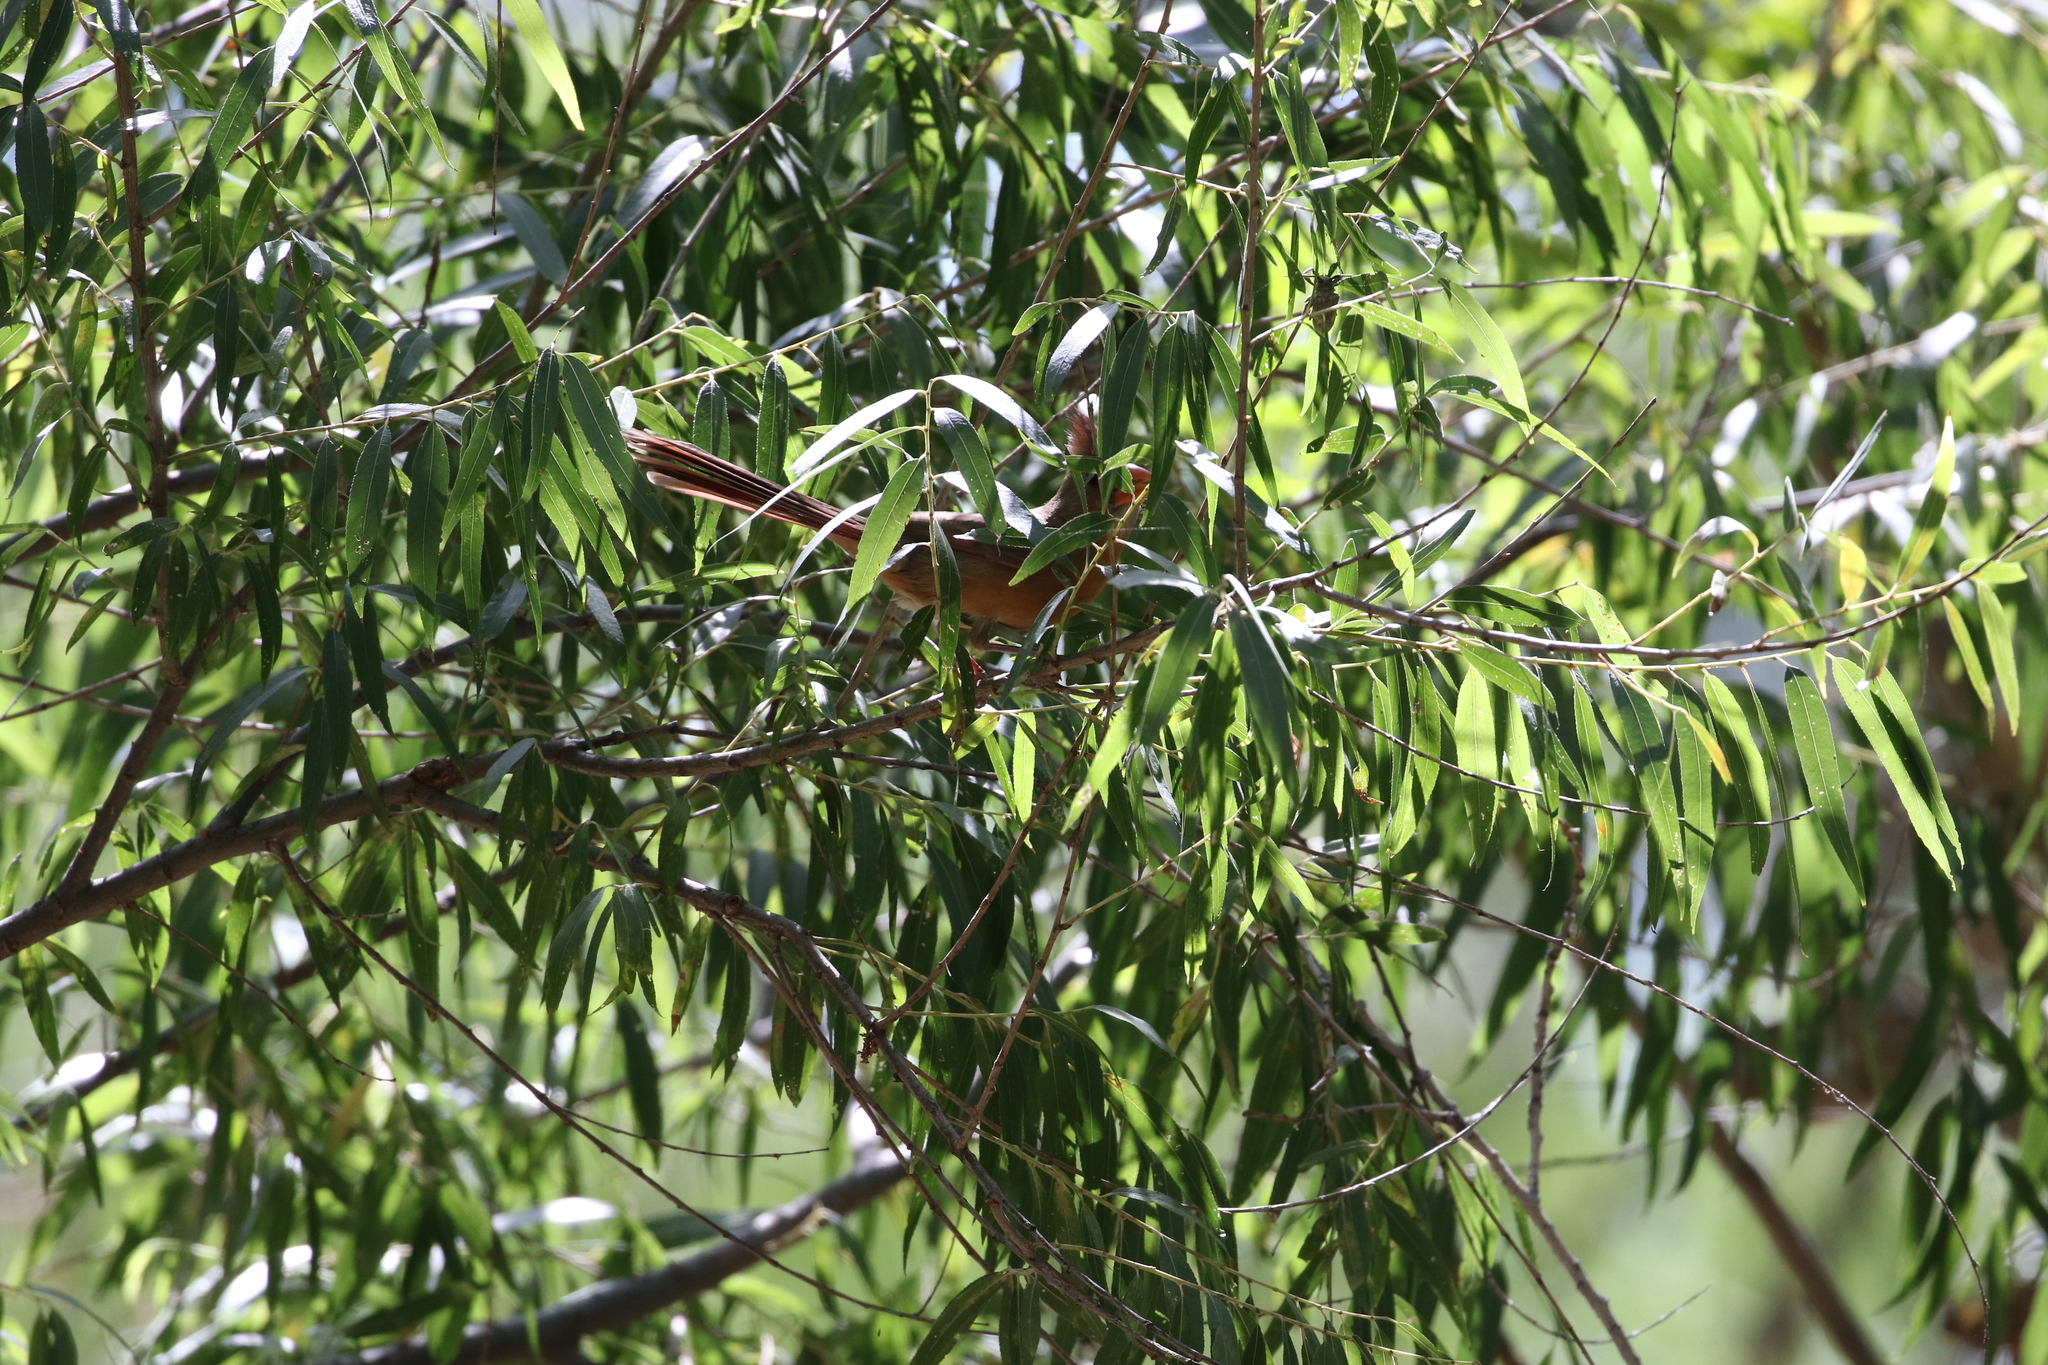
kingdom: Animalia
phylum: Chordata
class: Aves
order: Passeriformes
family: Cardinalidae
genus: Cardinalis
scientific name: Cardinalis cardinalis
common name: Northern cardinal
